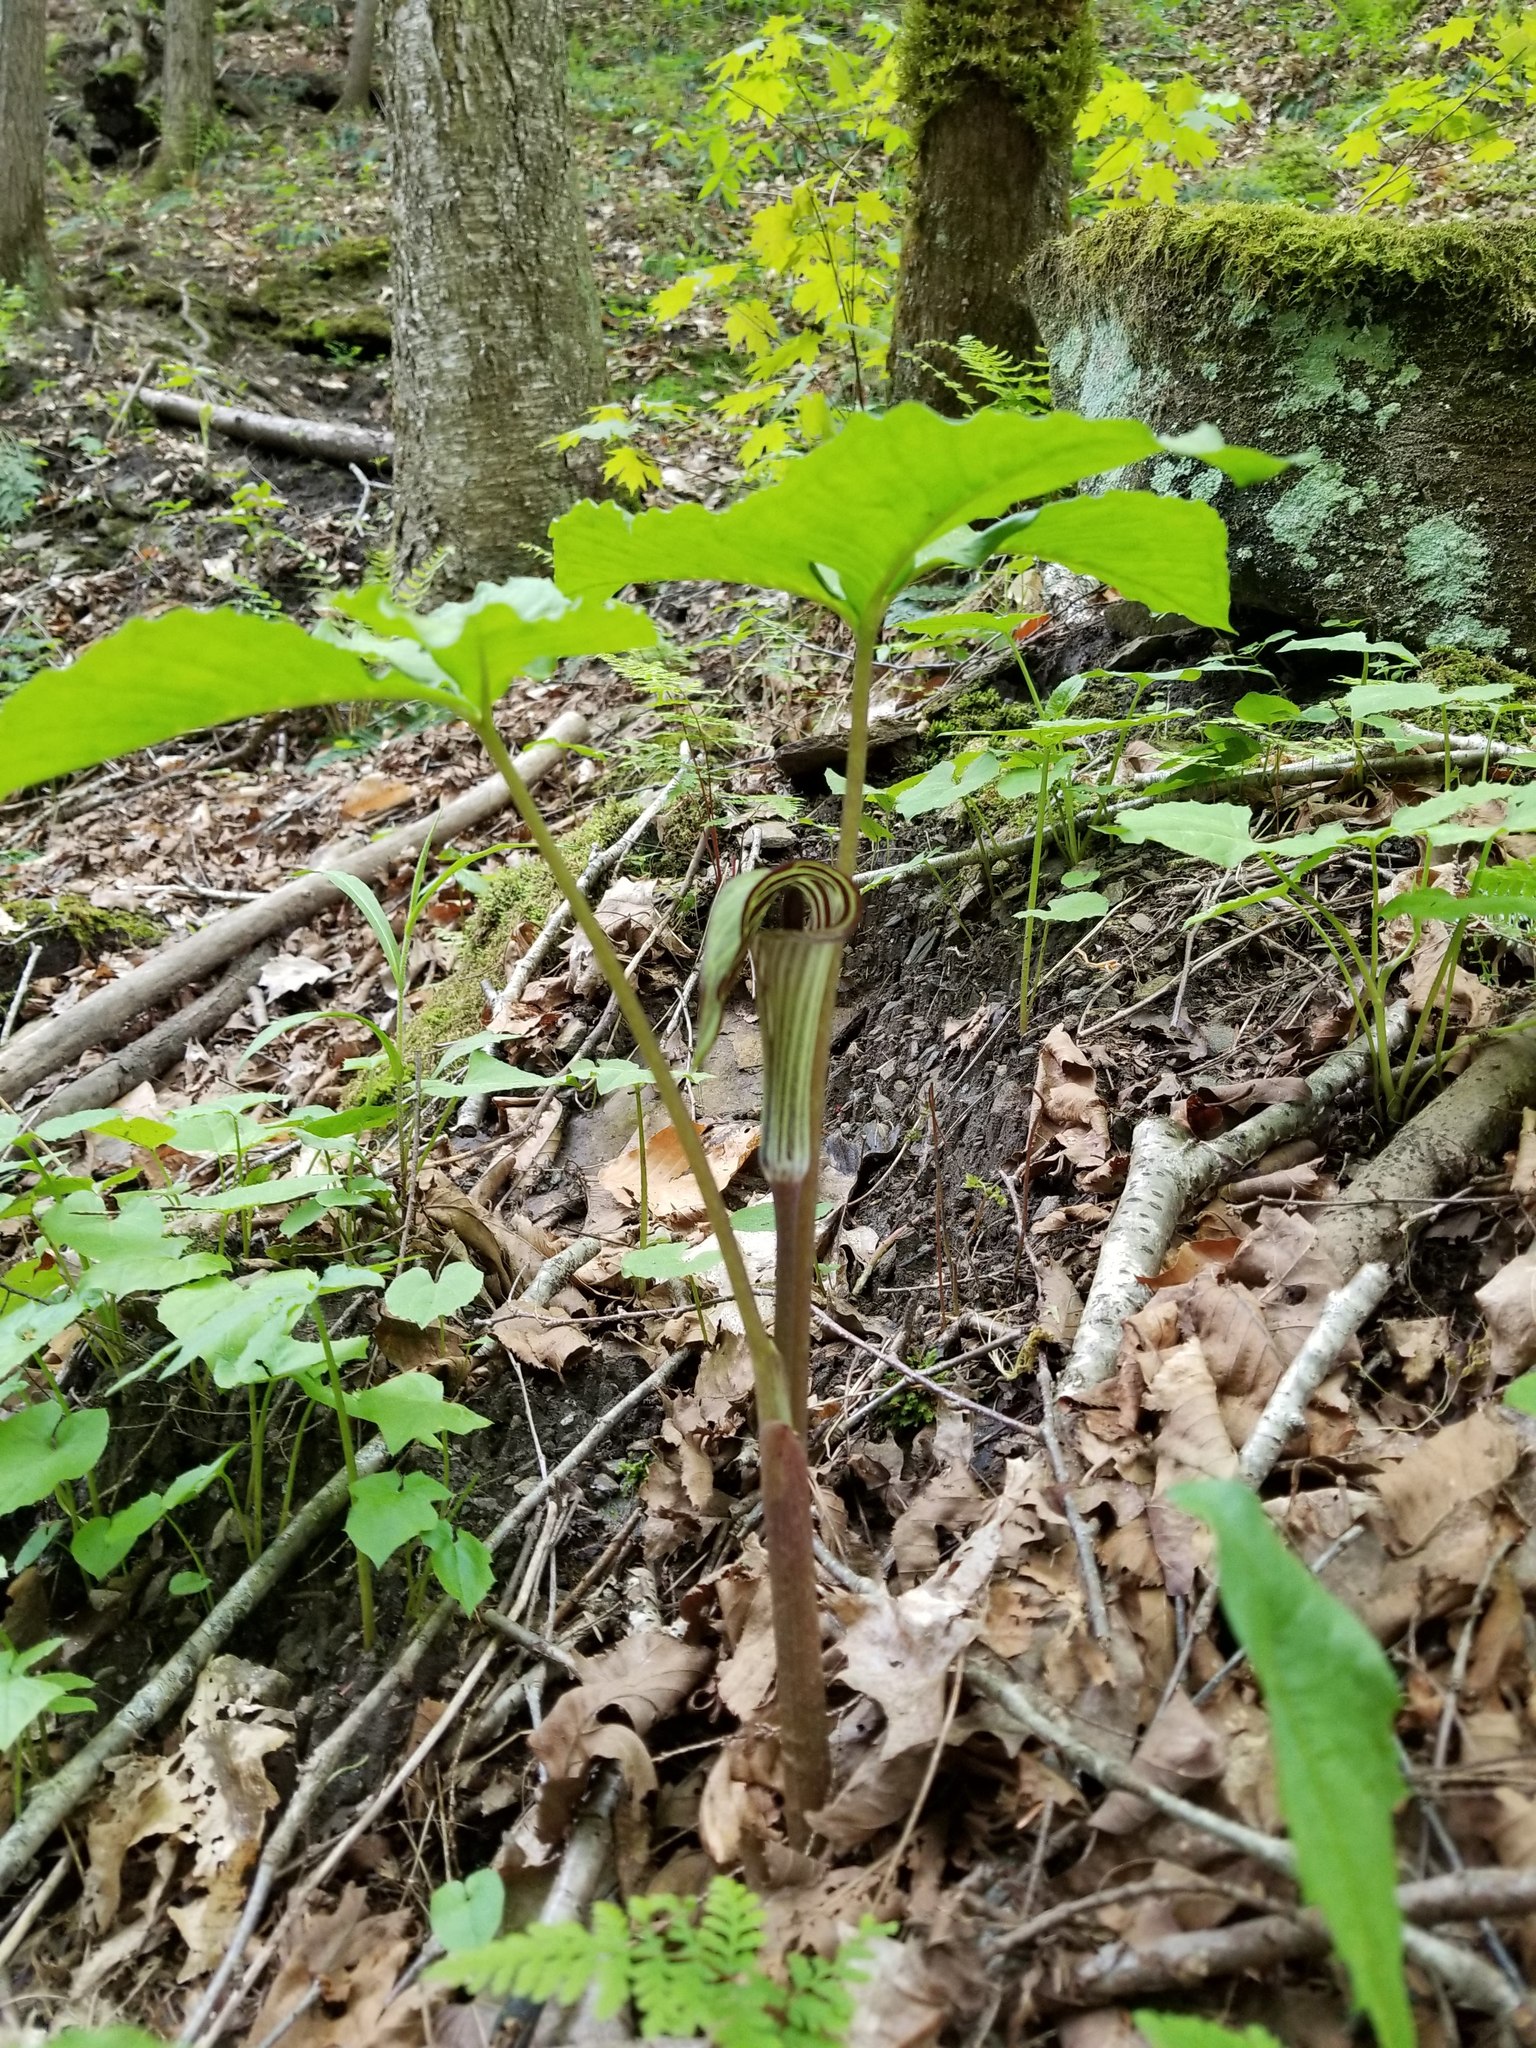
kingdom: Plantae
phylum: Tracheophyta
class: Liliopsida
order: Alismatales
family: Araceae
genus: Arisaema
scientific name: Arisaema triphyllum
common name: Jack-in-the-pulpit
